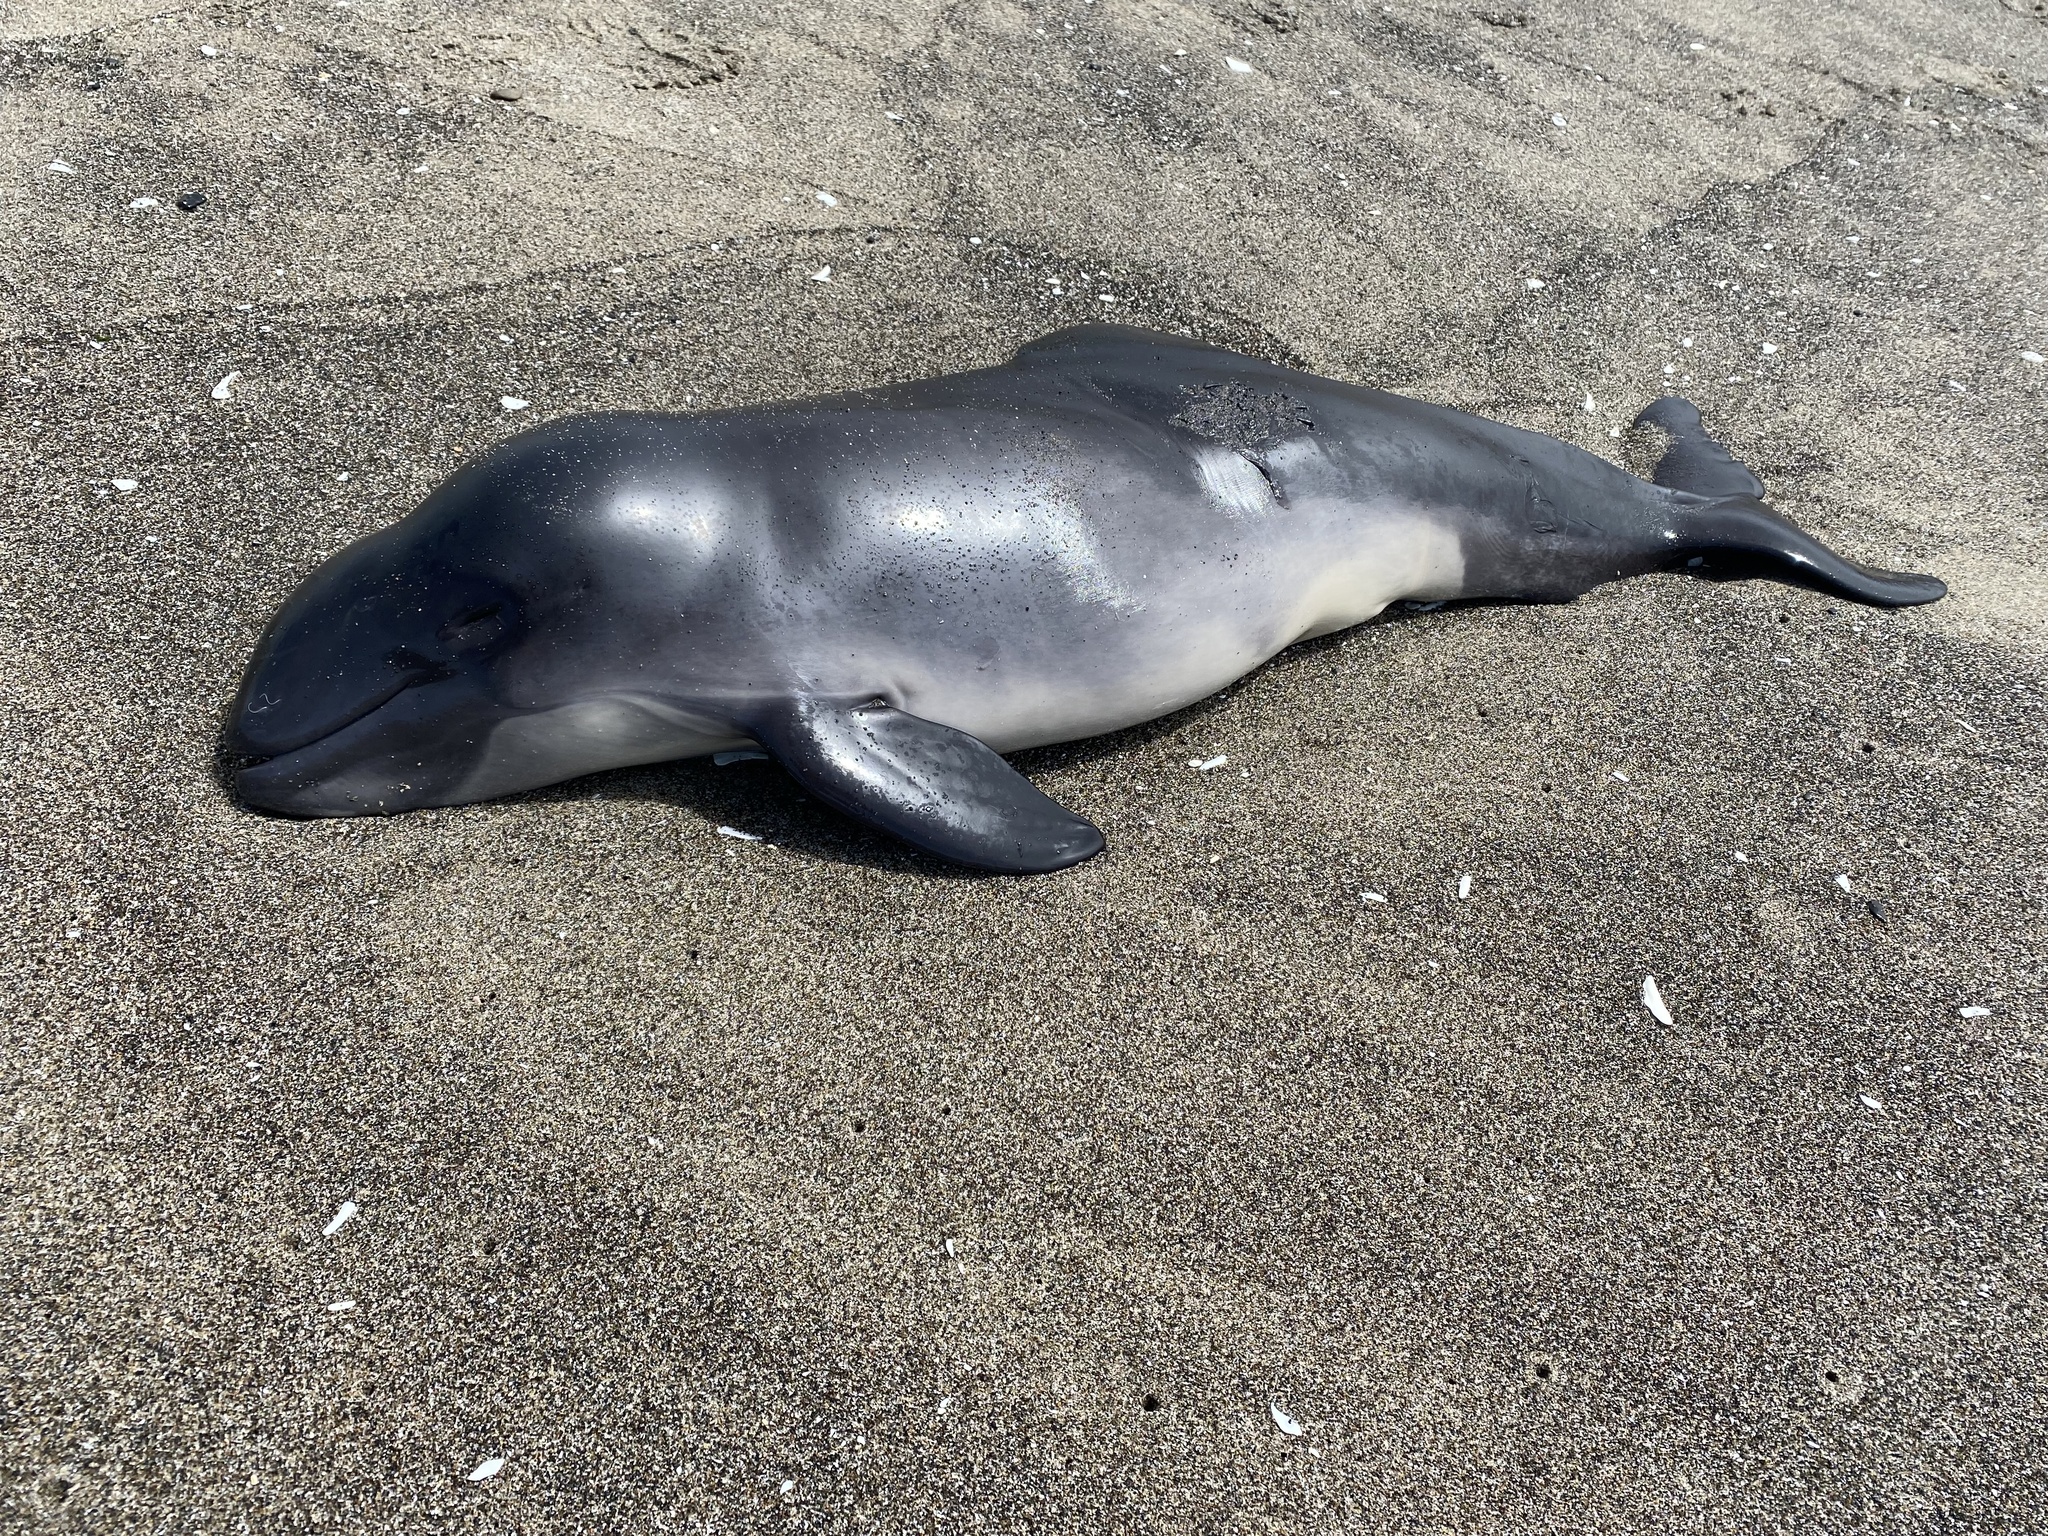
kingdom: Animalia
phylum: Chordata
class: Mammalia
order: Cetacea
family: Phocoenidae
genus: Phocoena
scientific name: Phocoena phocoena
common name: Harbor porpoise
